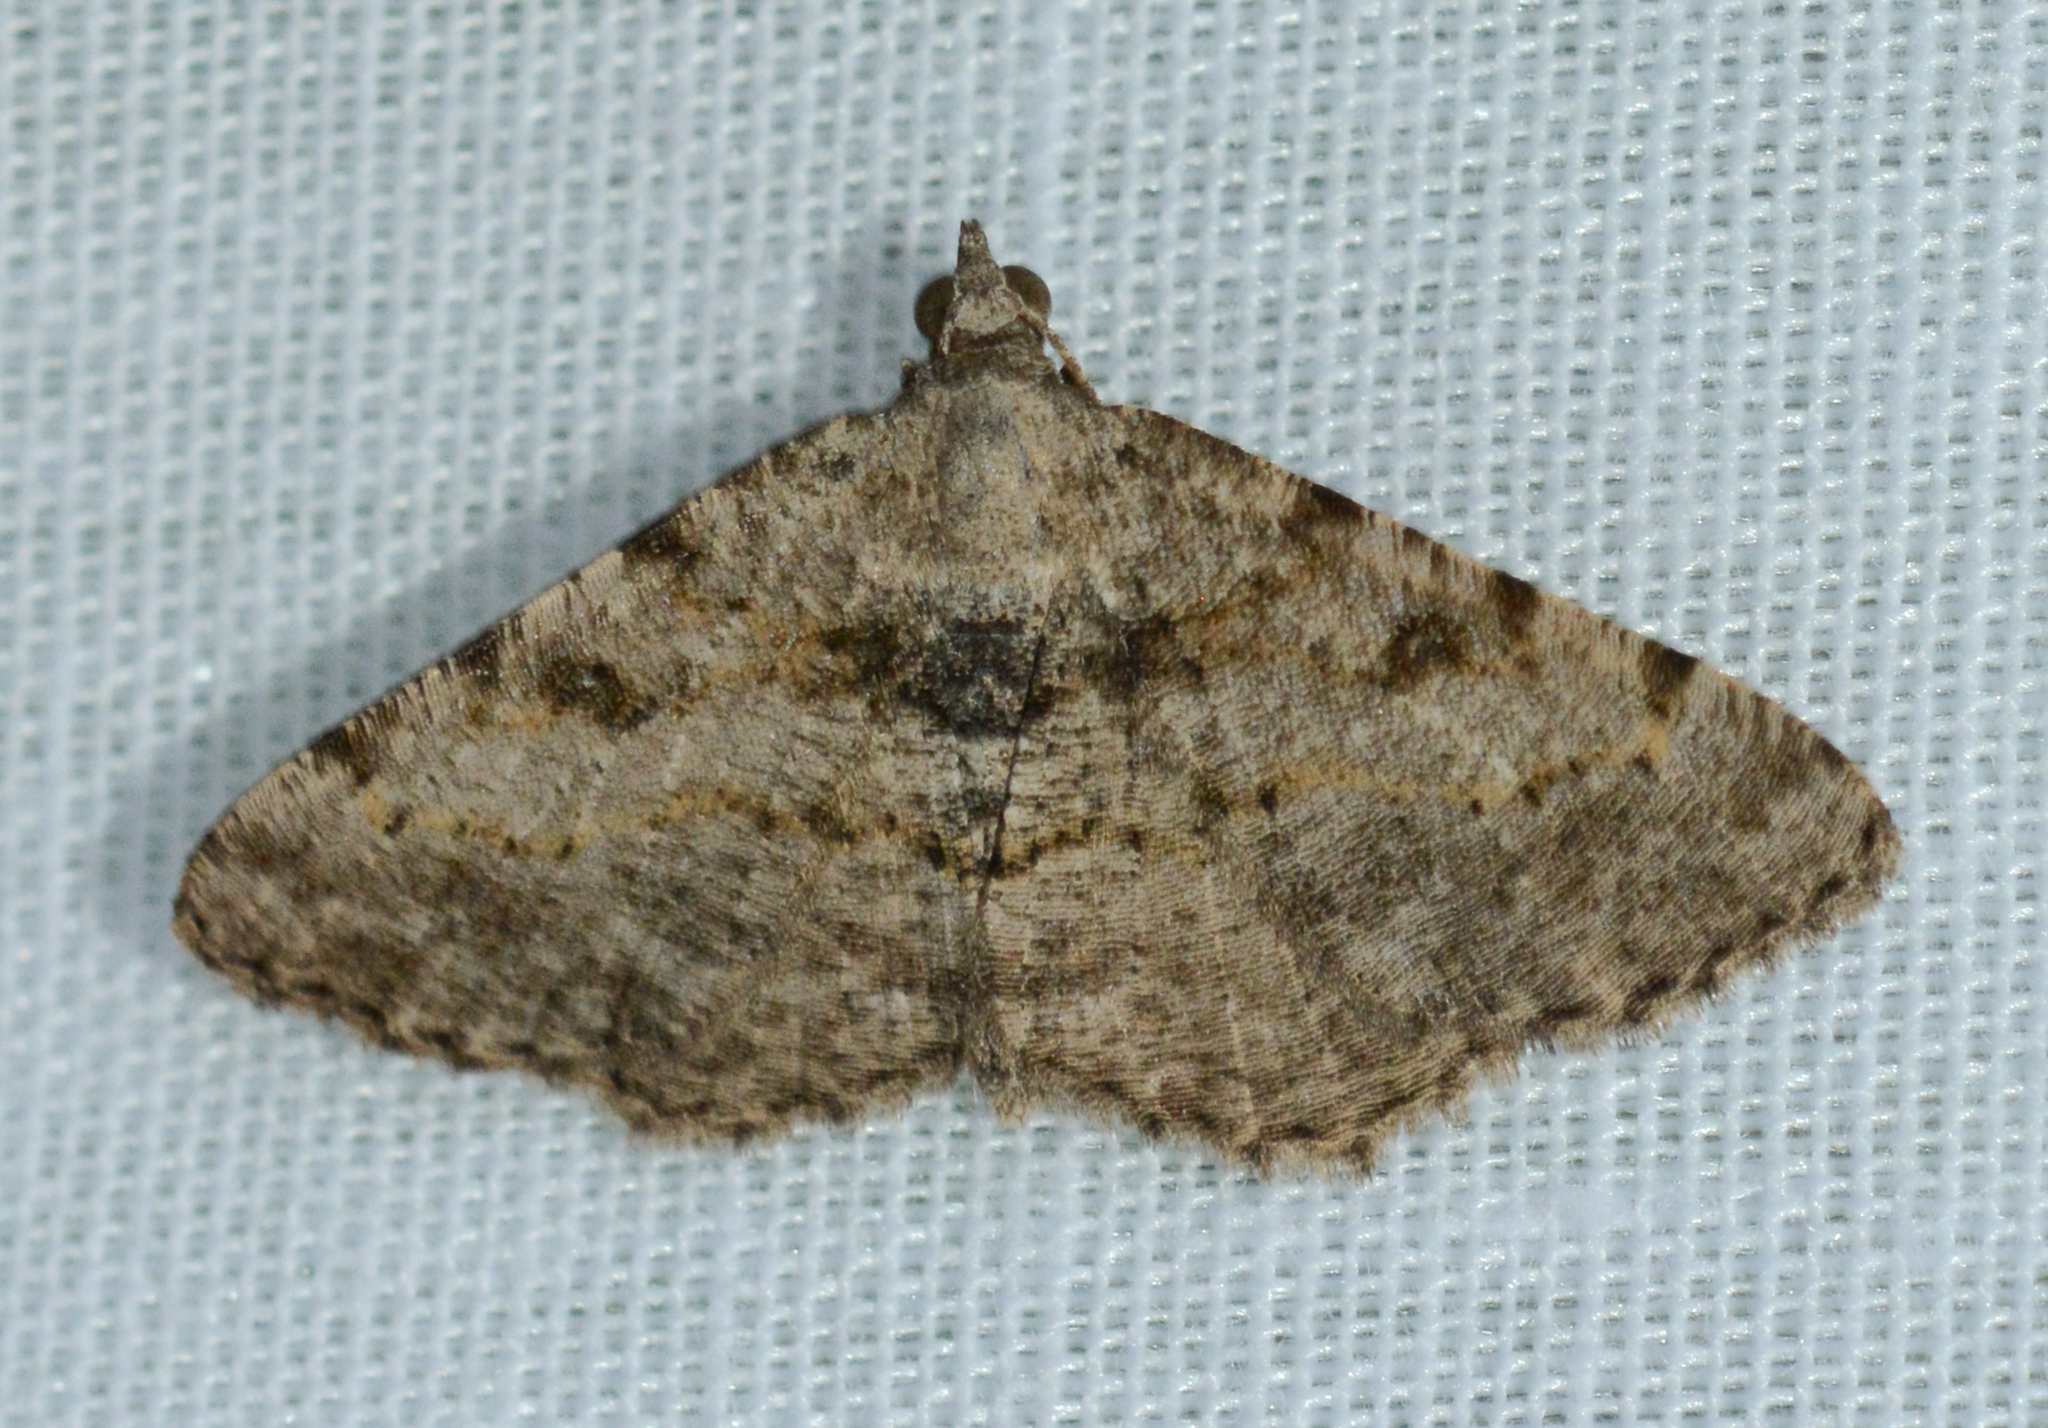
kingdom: Animalia
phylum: Arthropoda
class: Insecta
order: Lepidoptera
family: Geometridae
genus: Digrammia
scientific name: Digrammia gnophosaria
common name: Hollow-spotted angle
